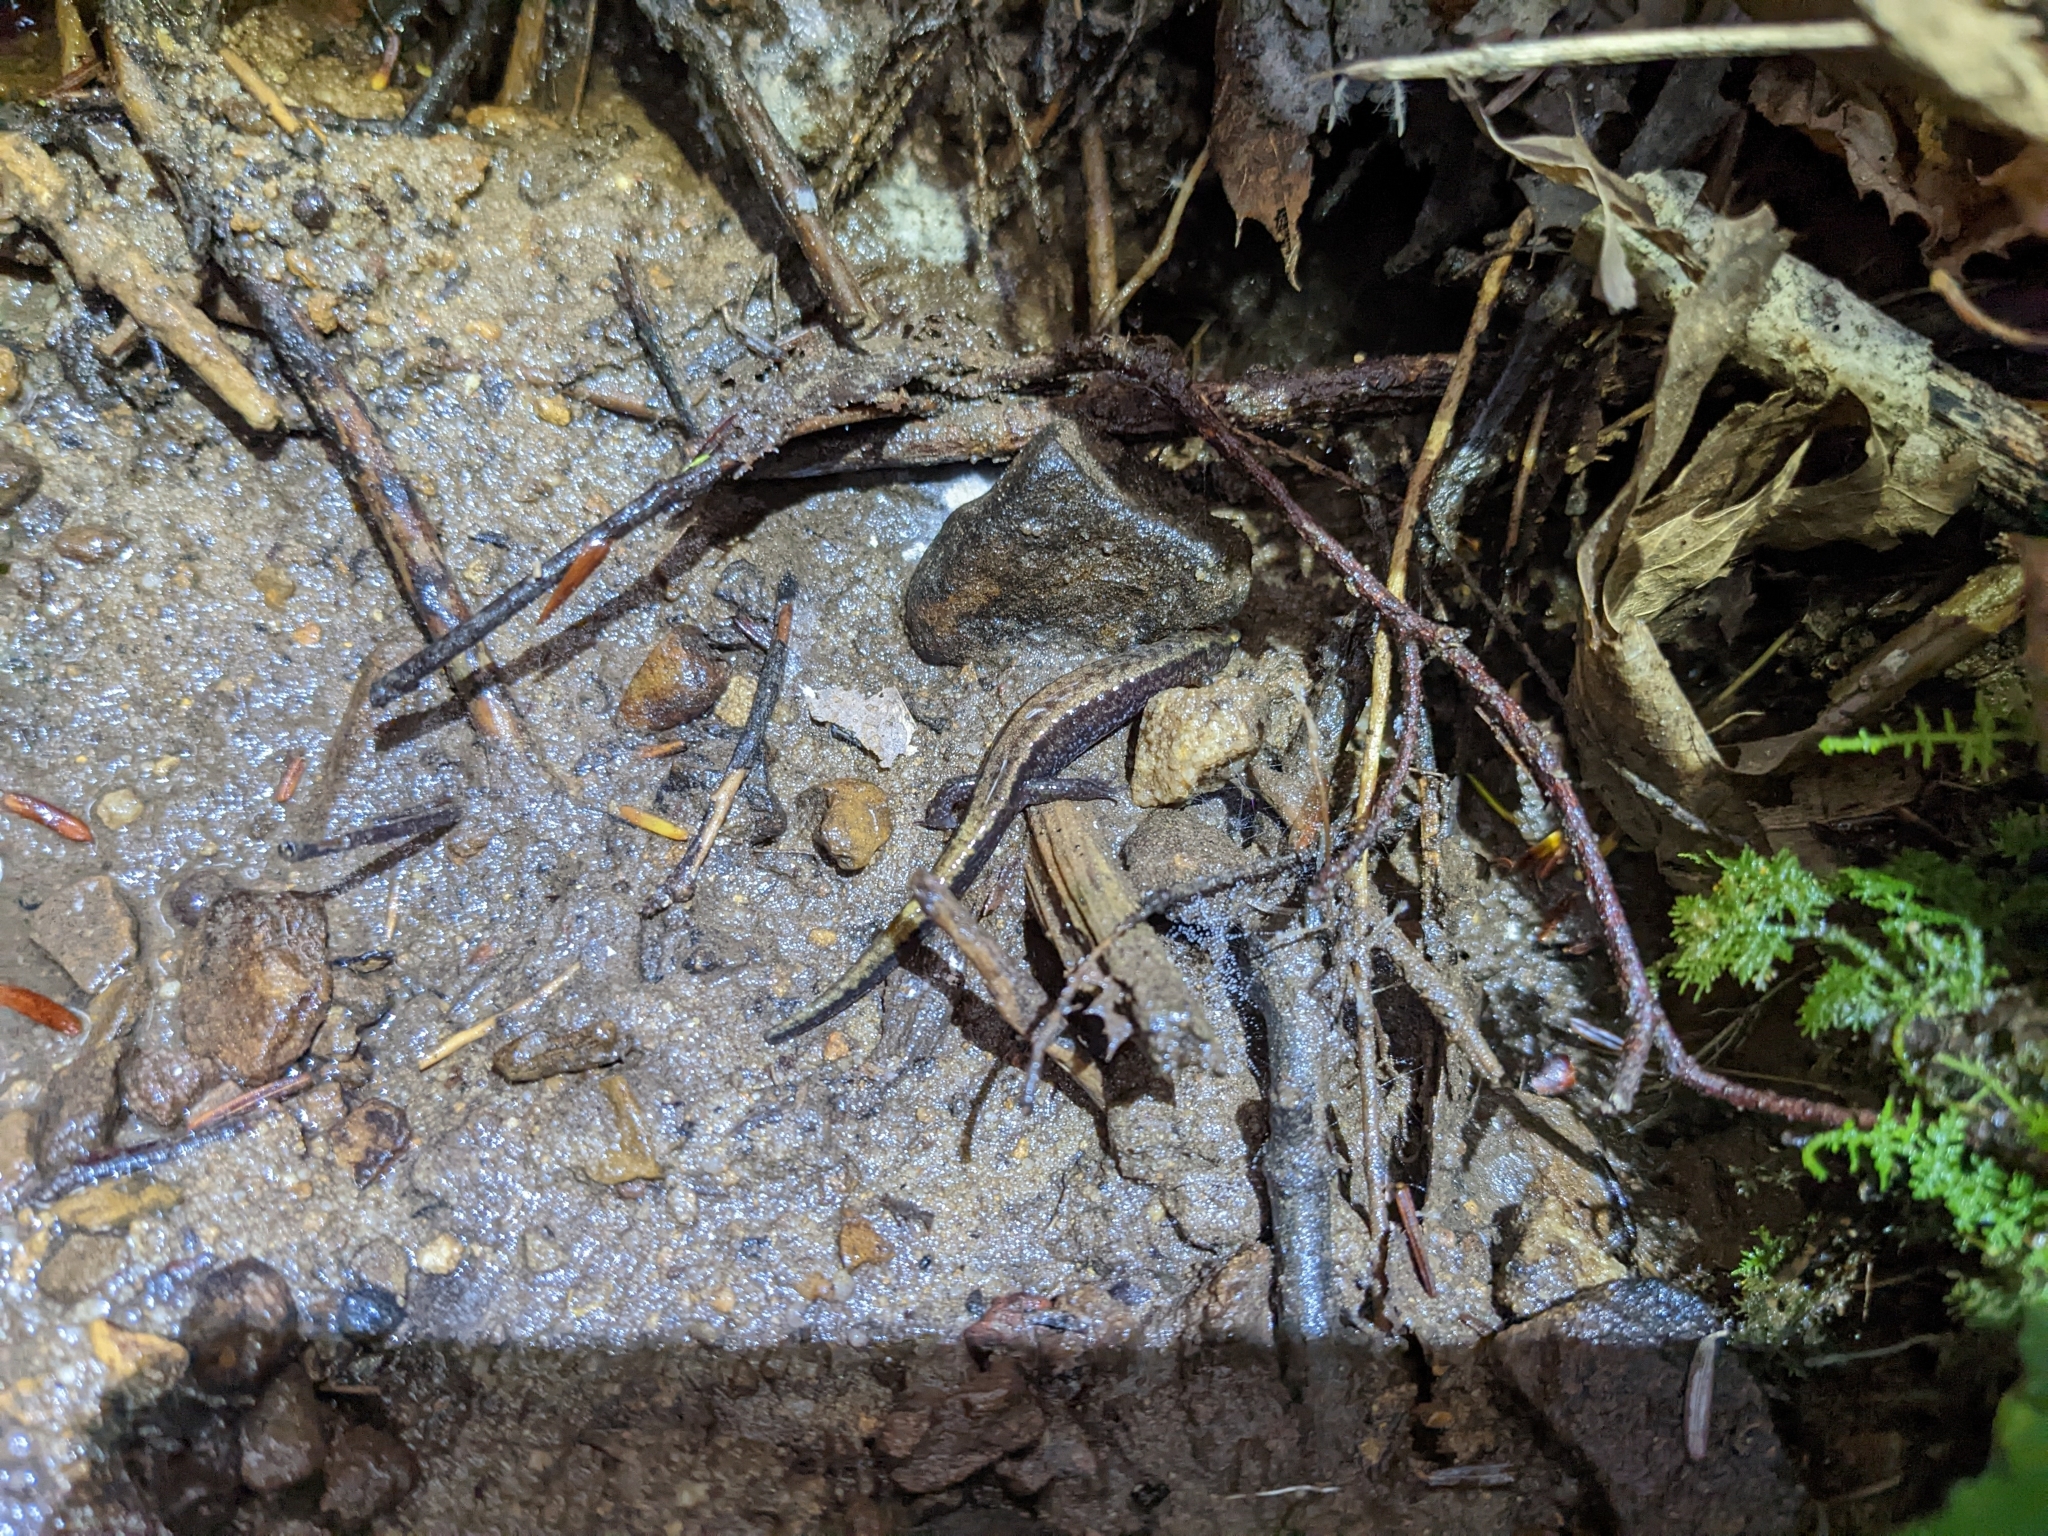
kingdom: Animalia
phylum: Chordata
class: Amphibia
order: Caudata
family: Plethodontidae
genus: Desmognathus
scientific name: Desmognathus ochrophaeus
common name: Allegheny mountain dusky salamander
